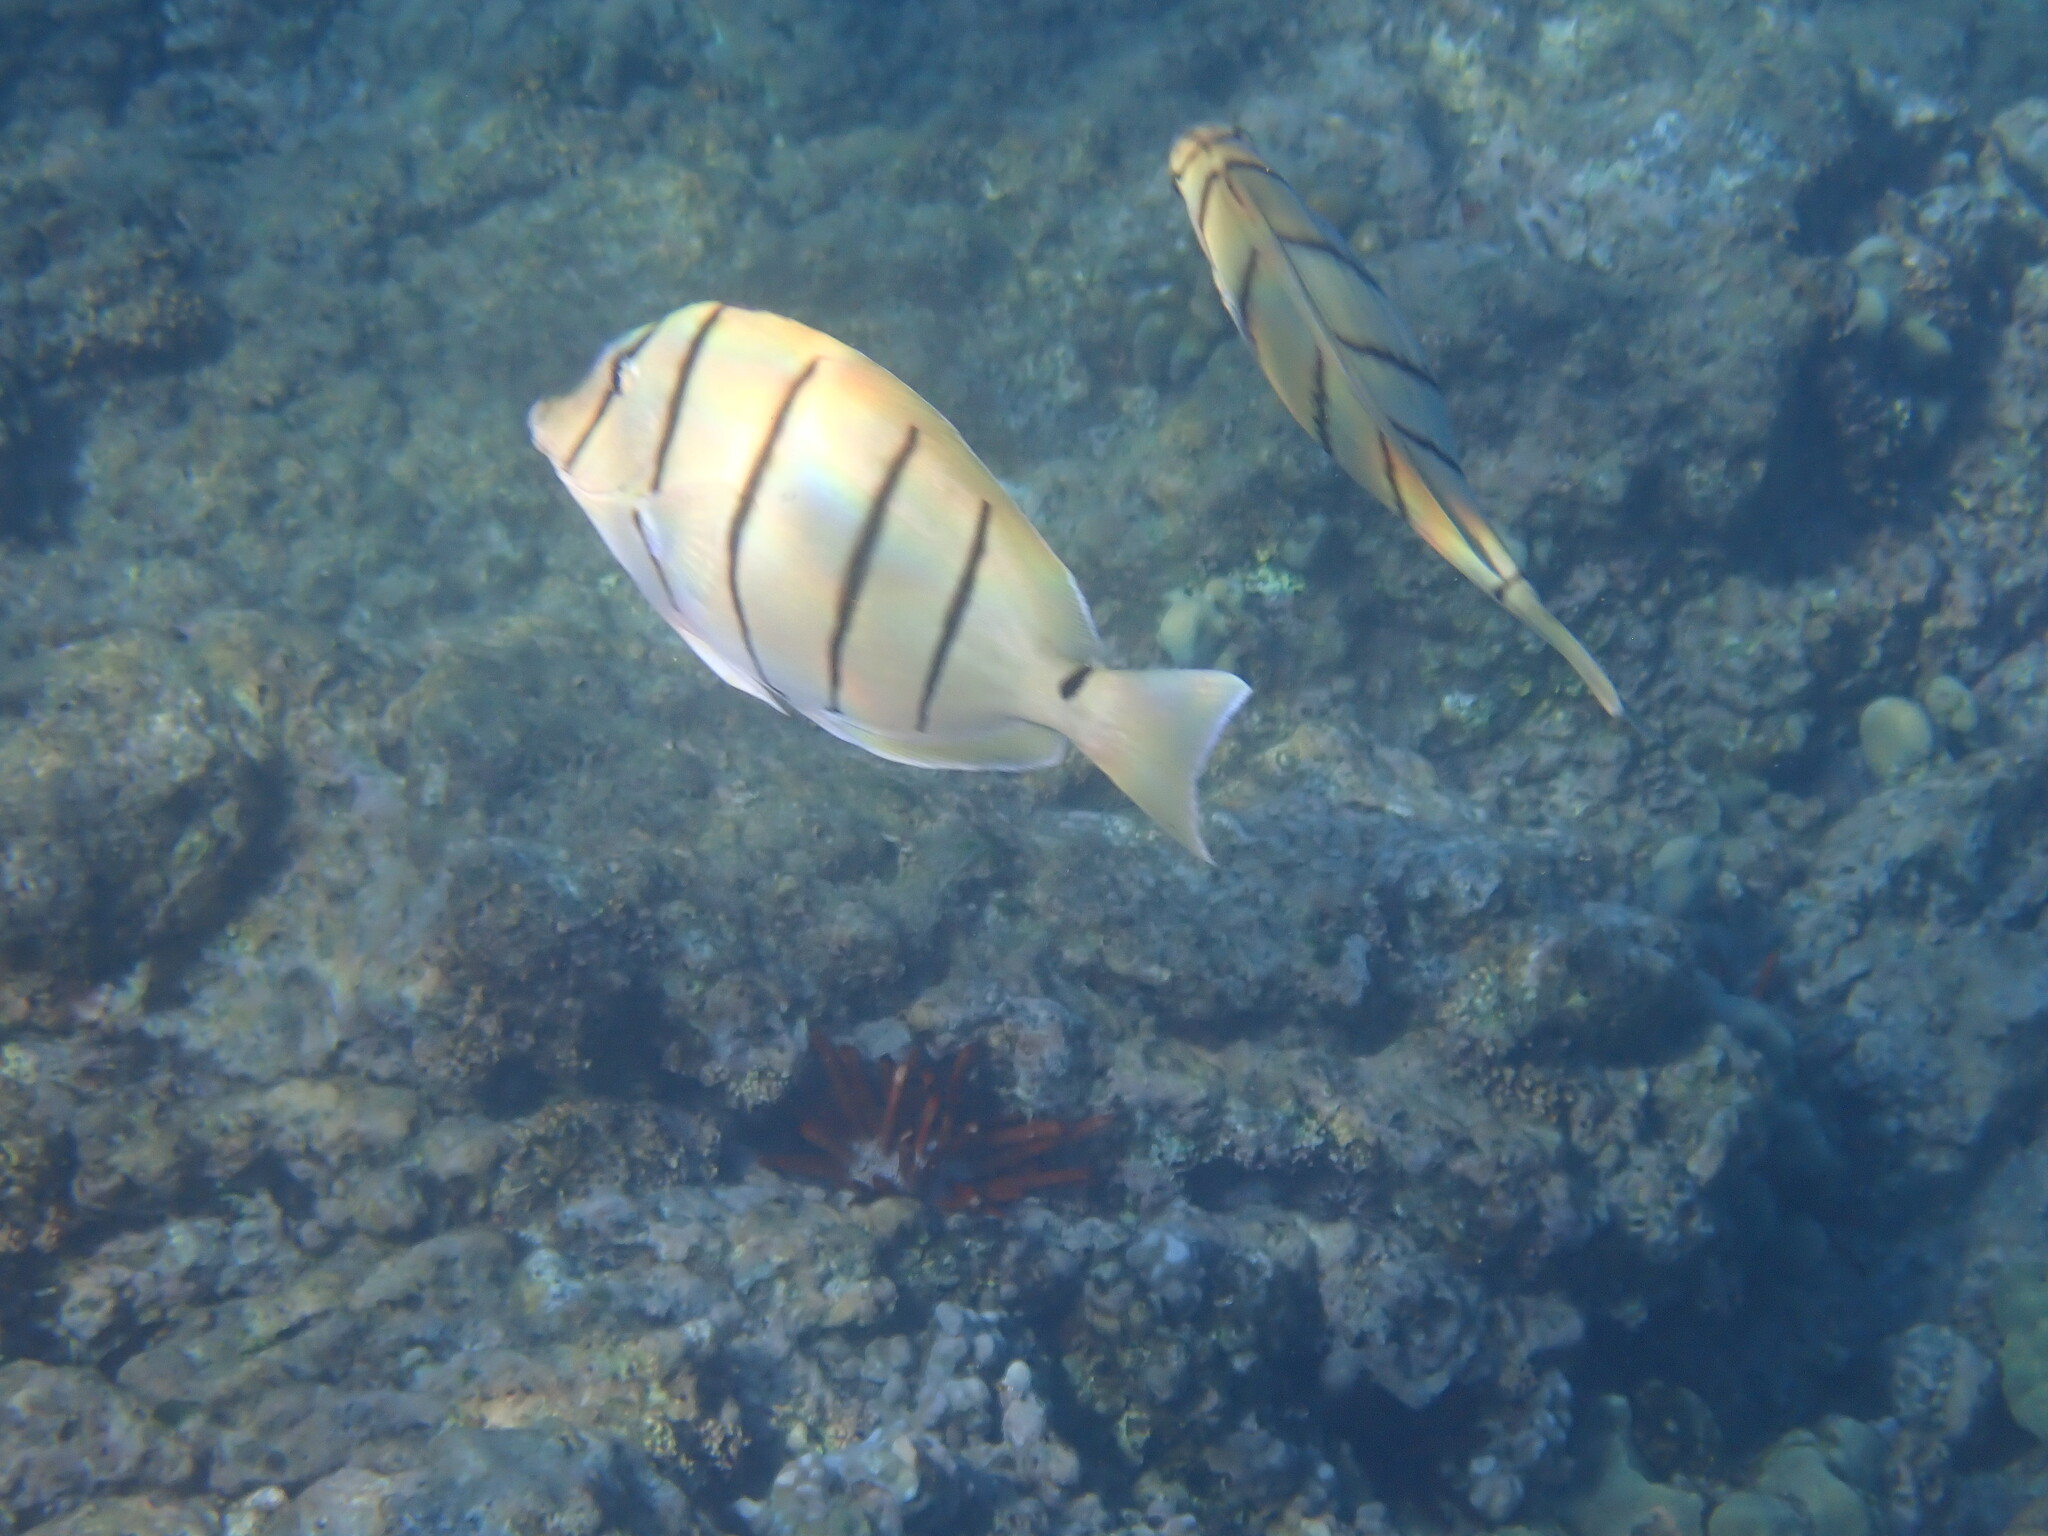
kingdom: Animalia
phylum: Chordata
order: Perciformes
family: Acanthuridae
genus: Acanthurus
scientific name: Acanthurus triostegus
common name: Convict surgeonfish
